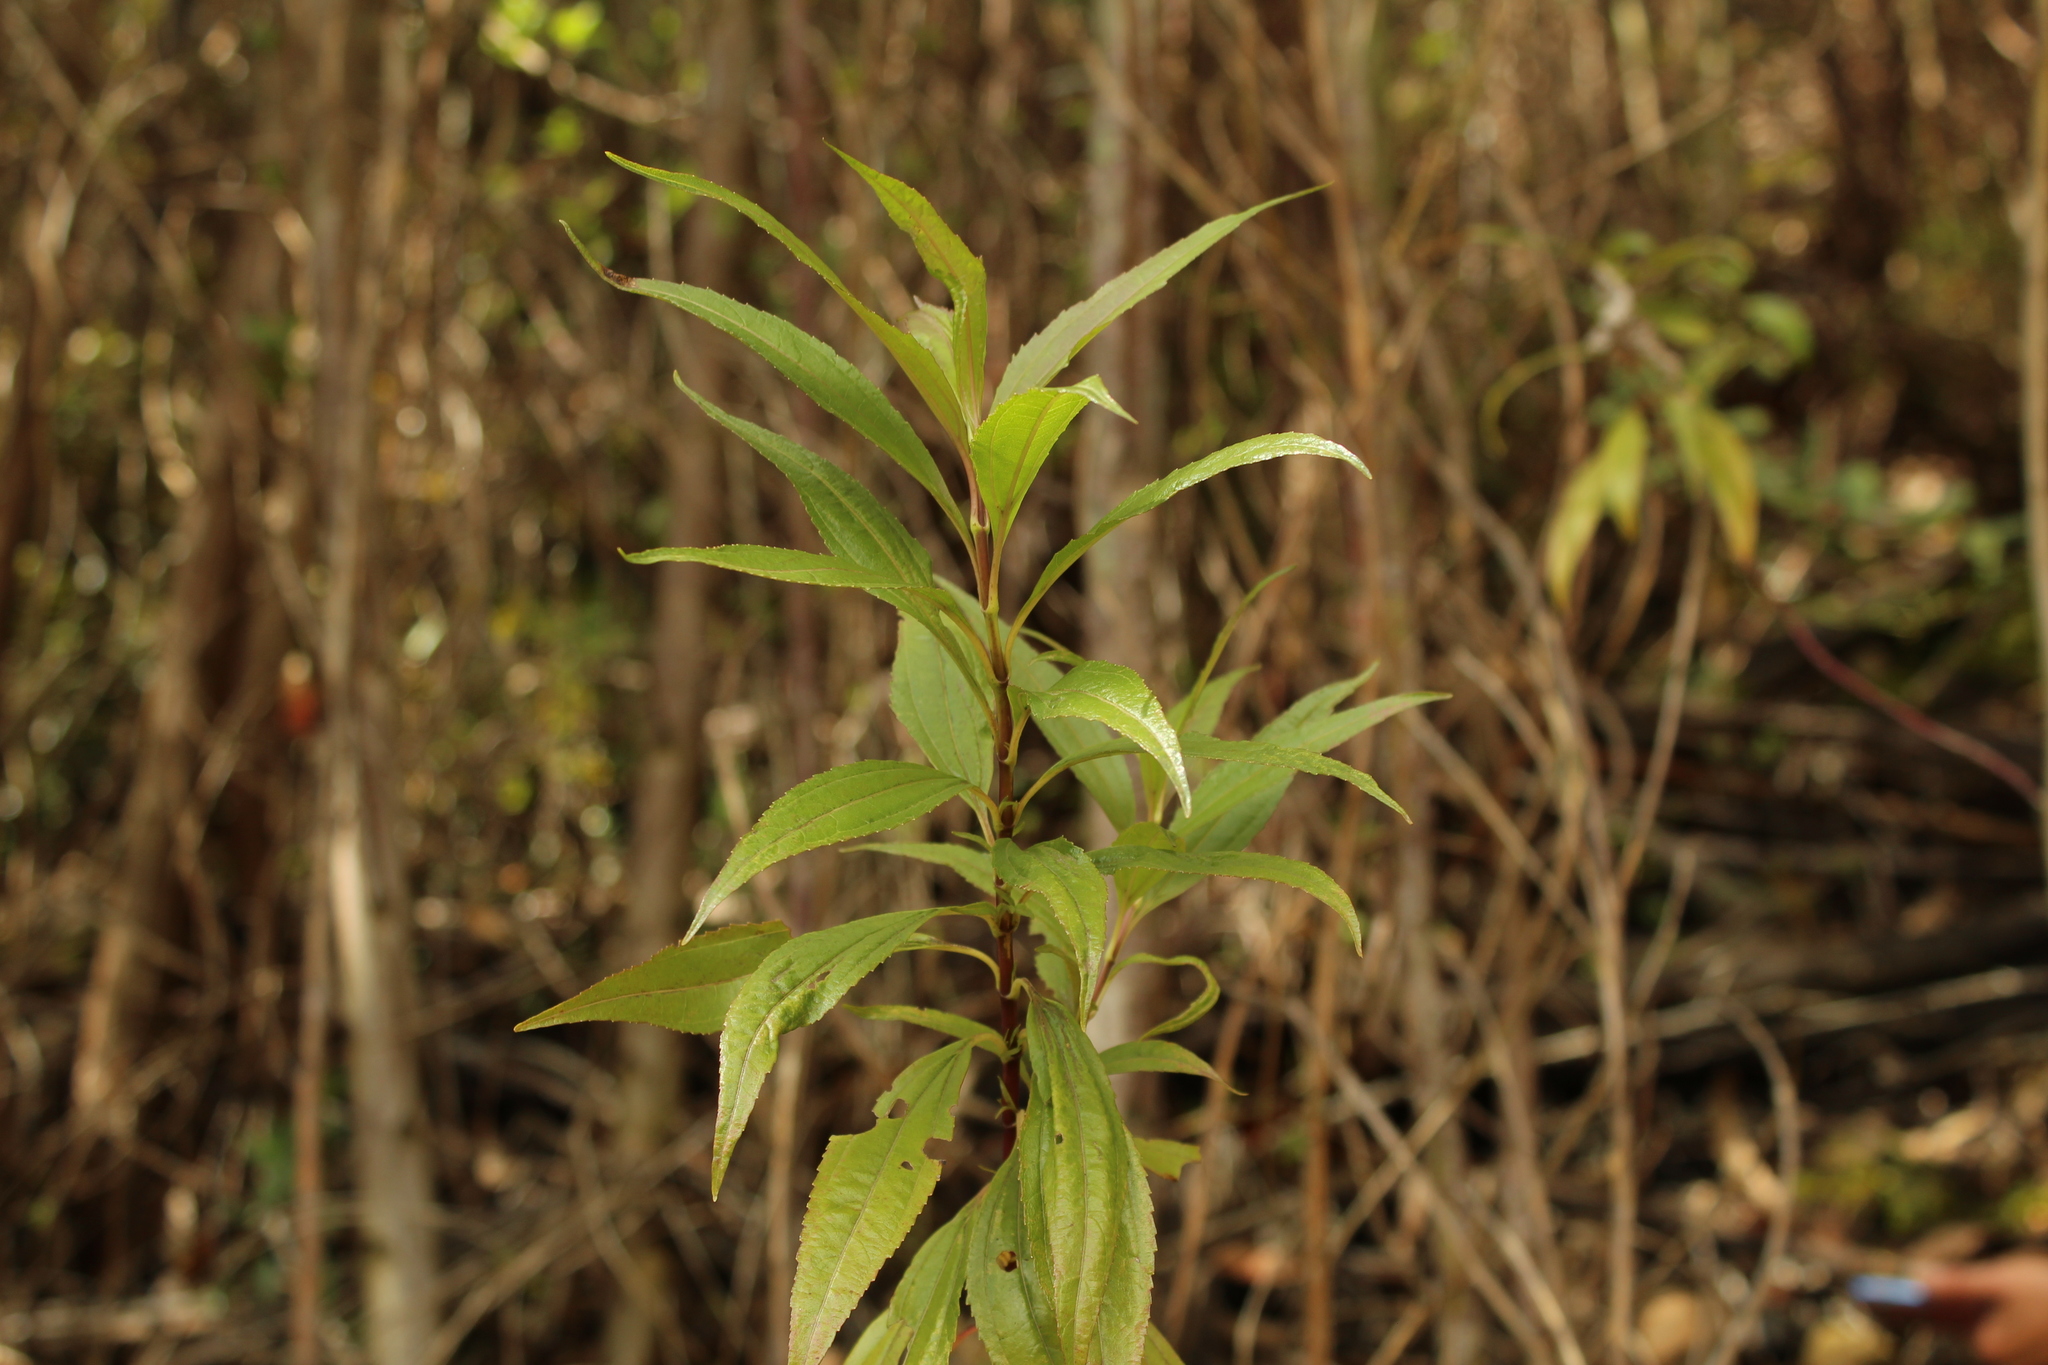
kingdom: Plantae
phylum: Tracheophyta
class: Magnoliopsida
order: Asterales
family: Asteraceae
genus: Chromolaena
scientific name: Chromolaena perglabra
